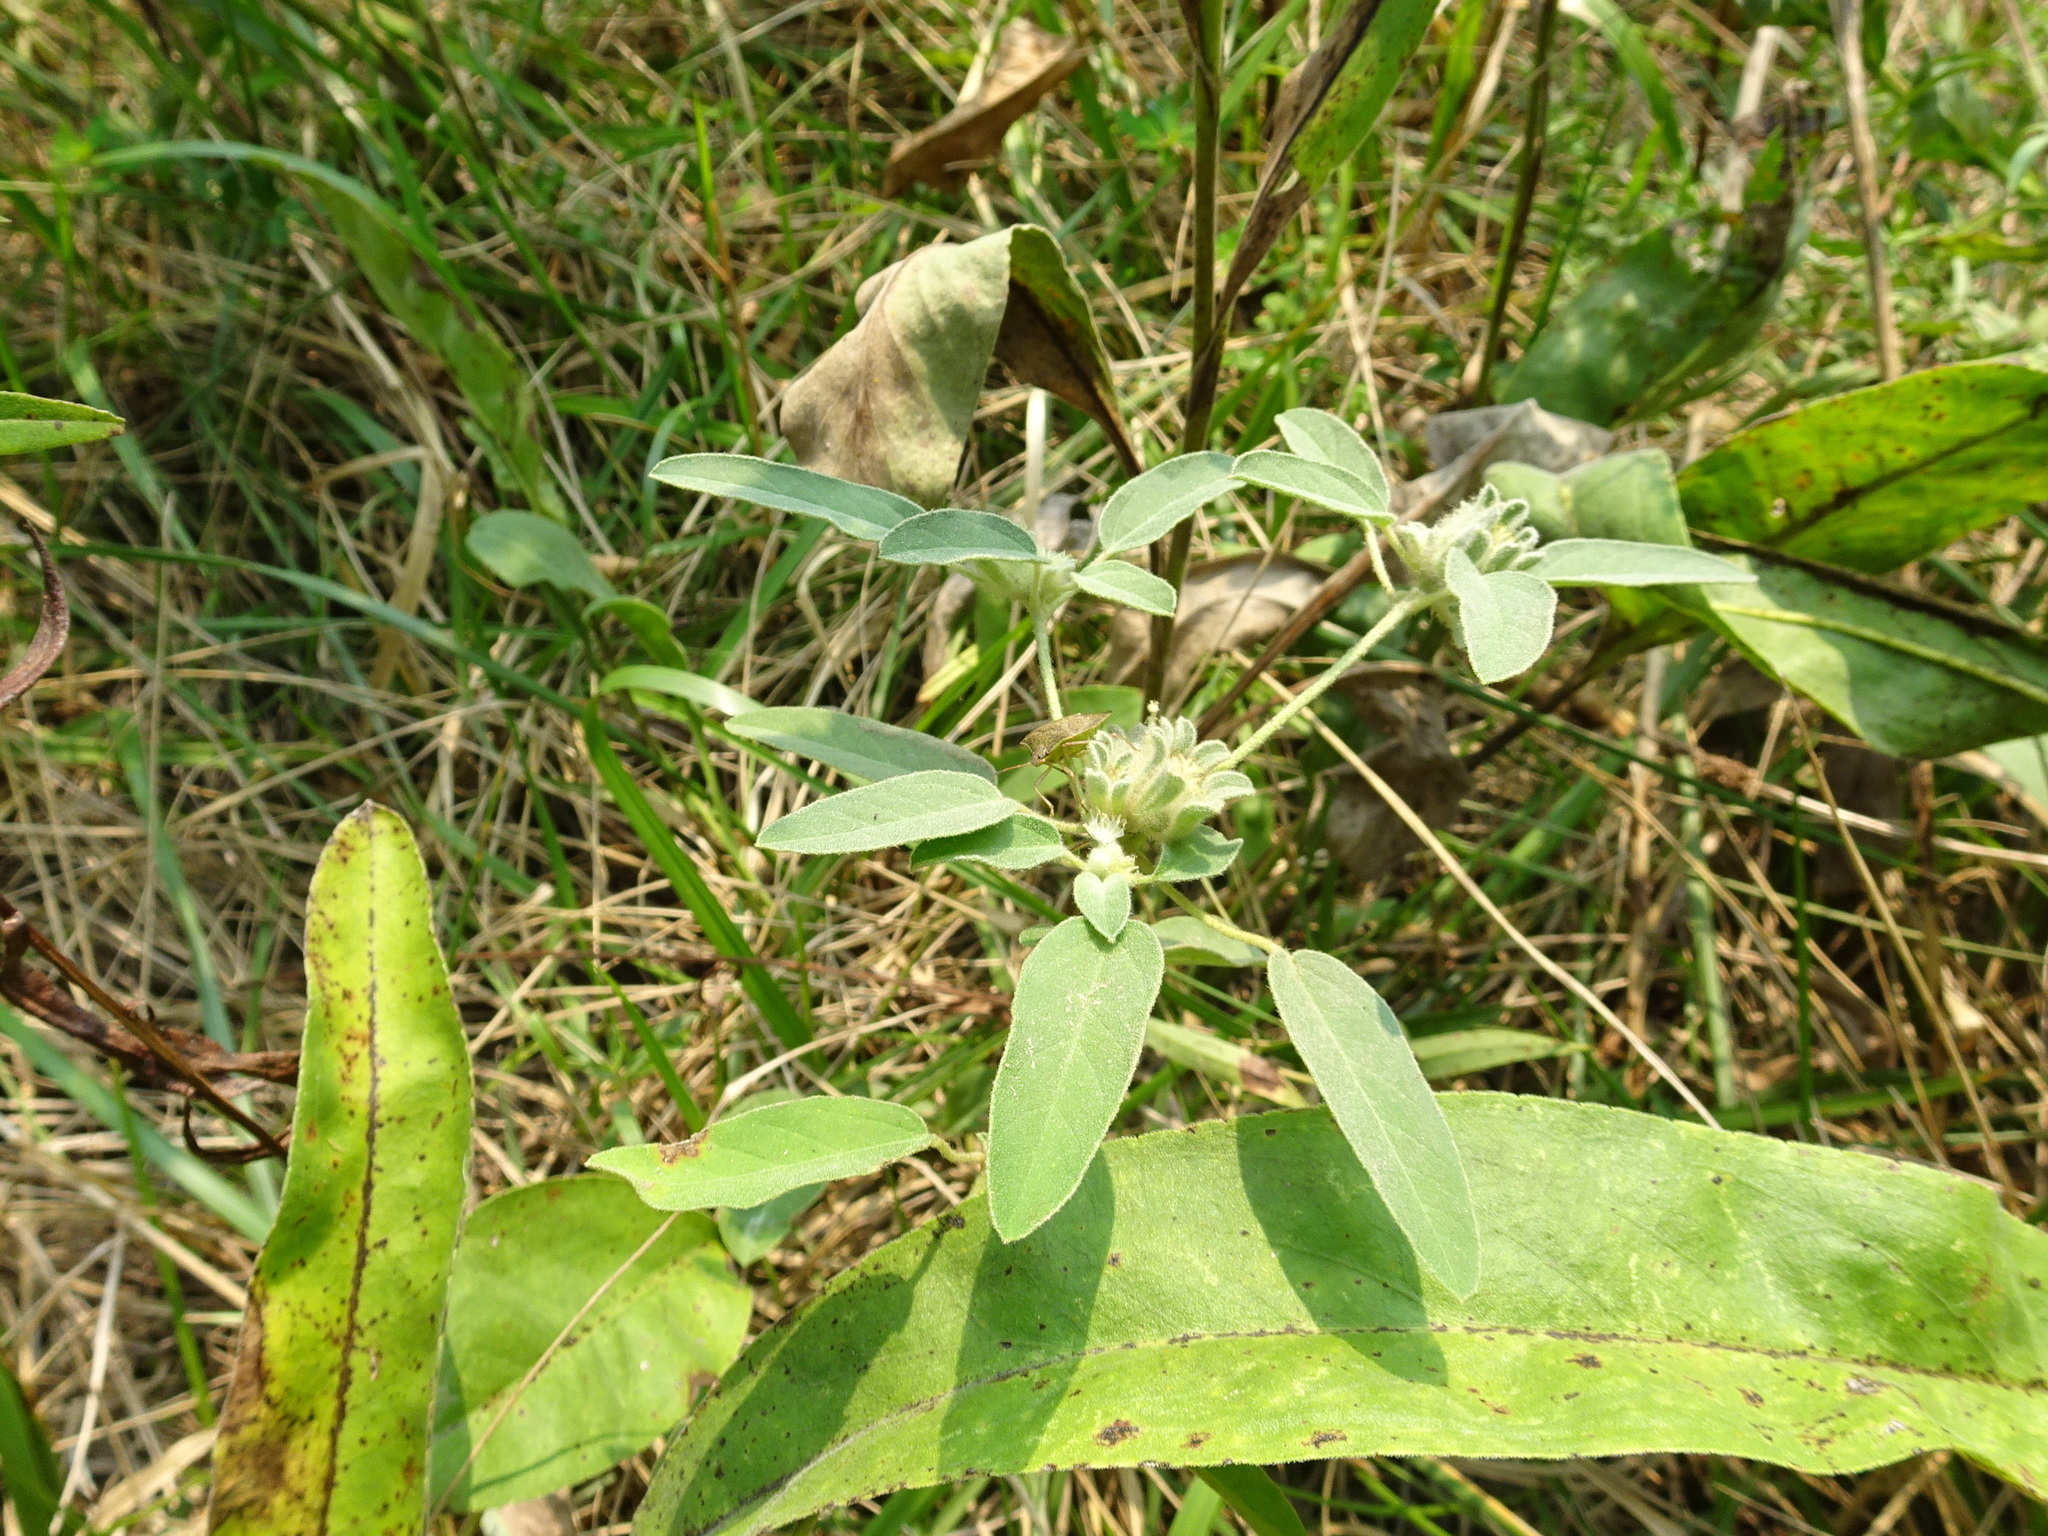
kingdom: Plantae
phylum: Tracheophyta
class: Magnoliopsida
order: Malpighiales
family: Euphorbiaceae
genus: Croton
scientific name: Croton capitatus
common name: Woolly croton
